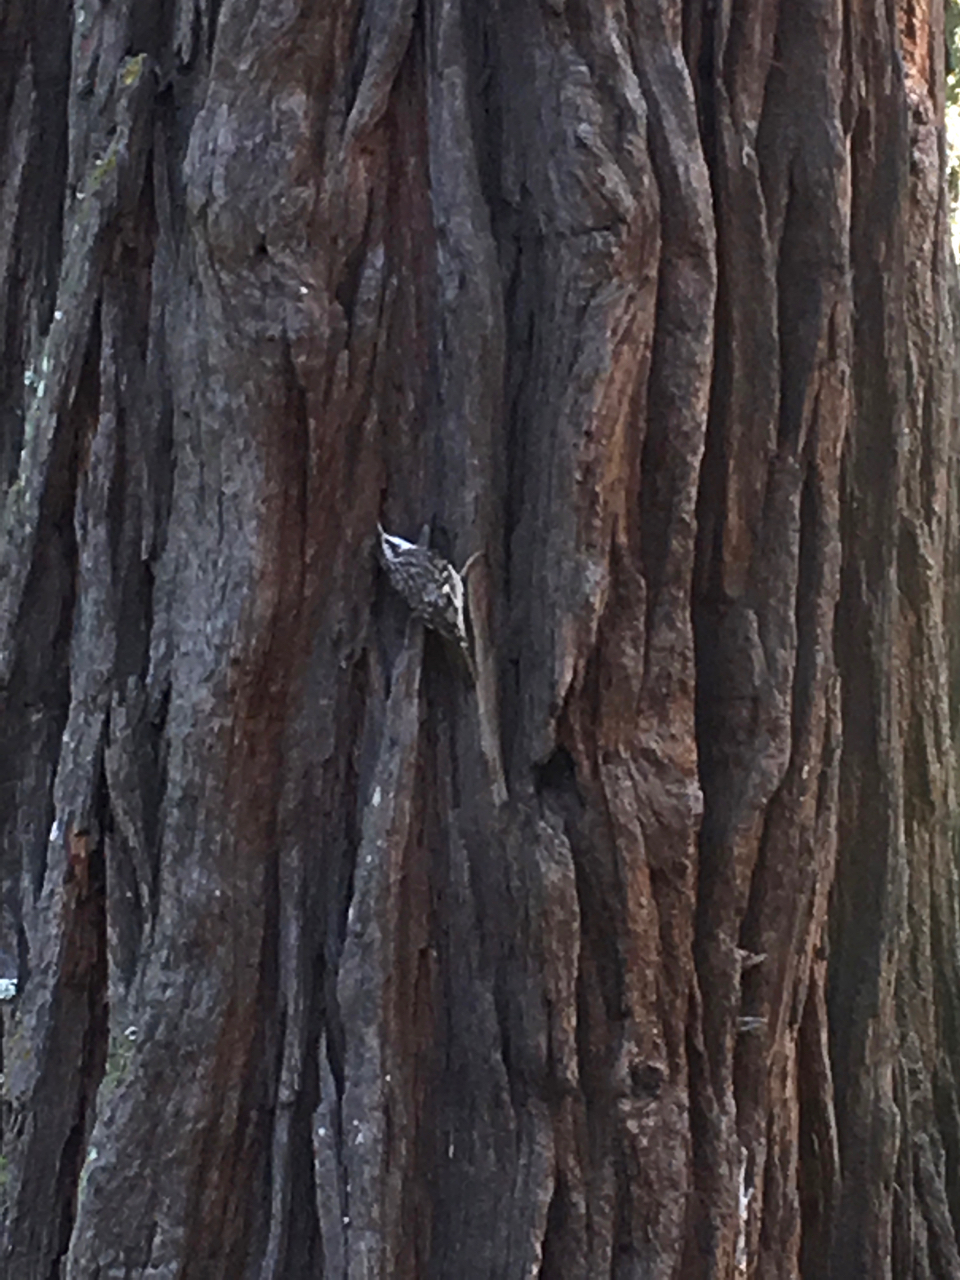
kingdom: Animalia
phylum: Chordata
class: Aves
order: Passeriformes
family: Certhiidae
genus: Certhia
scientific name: Certhia americana
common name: Brown creeper
